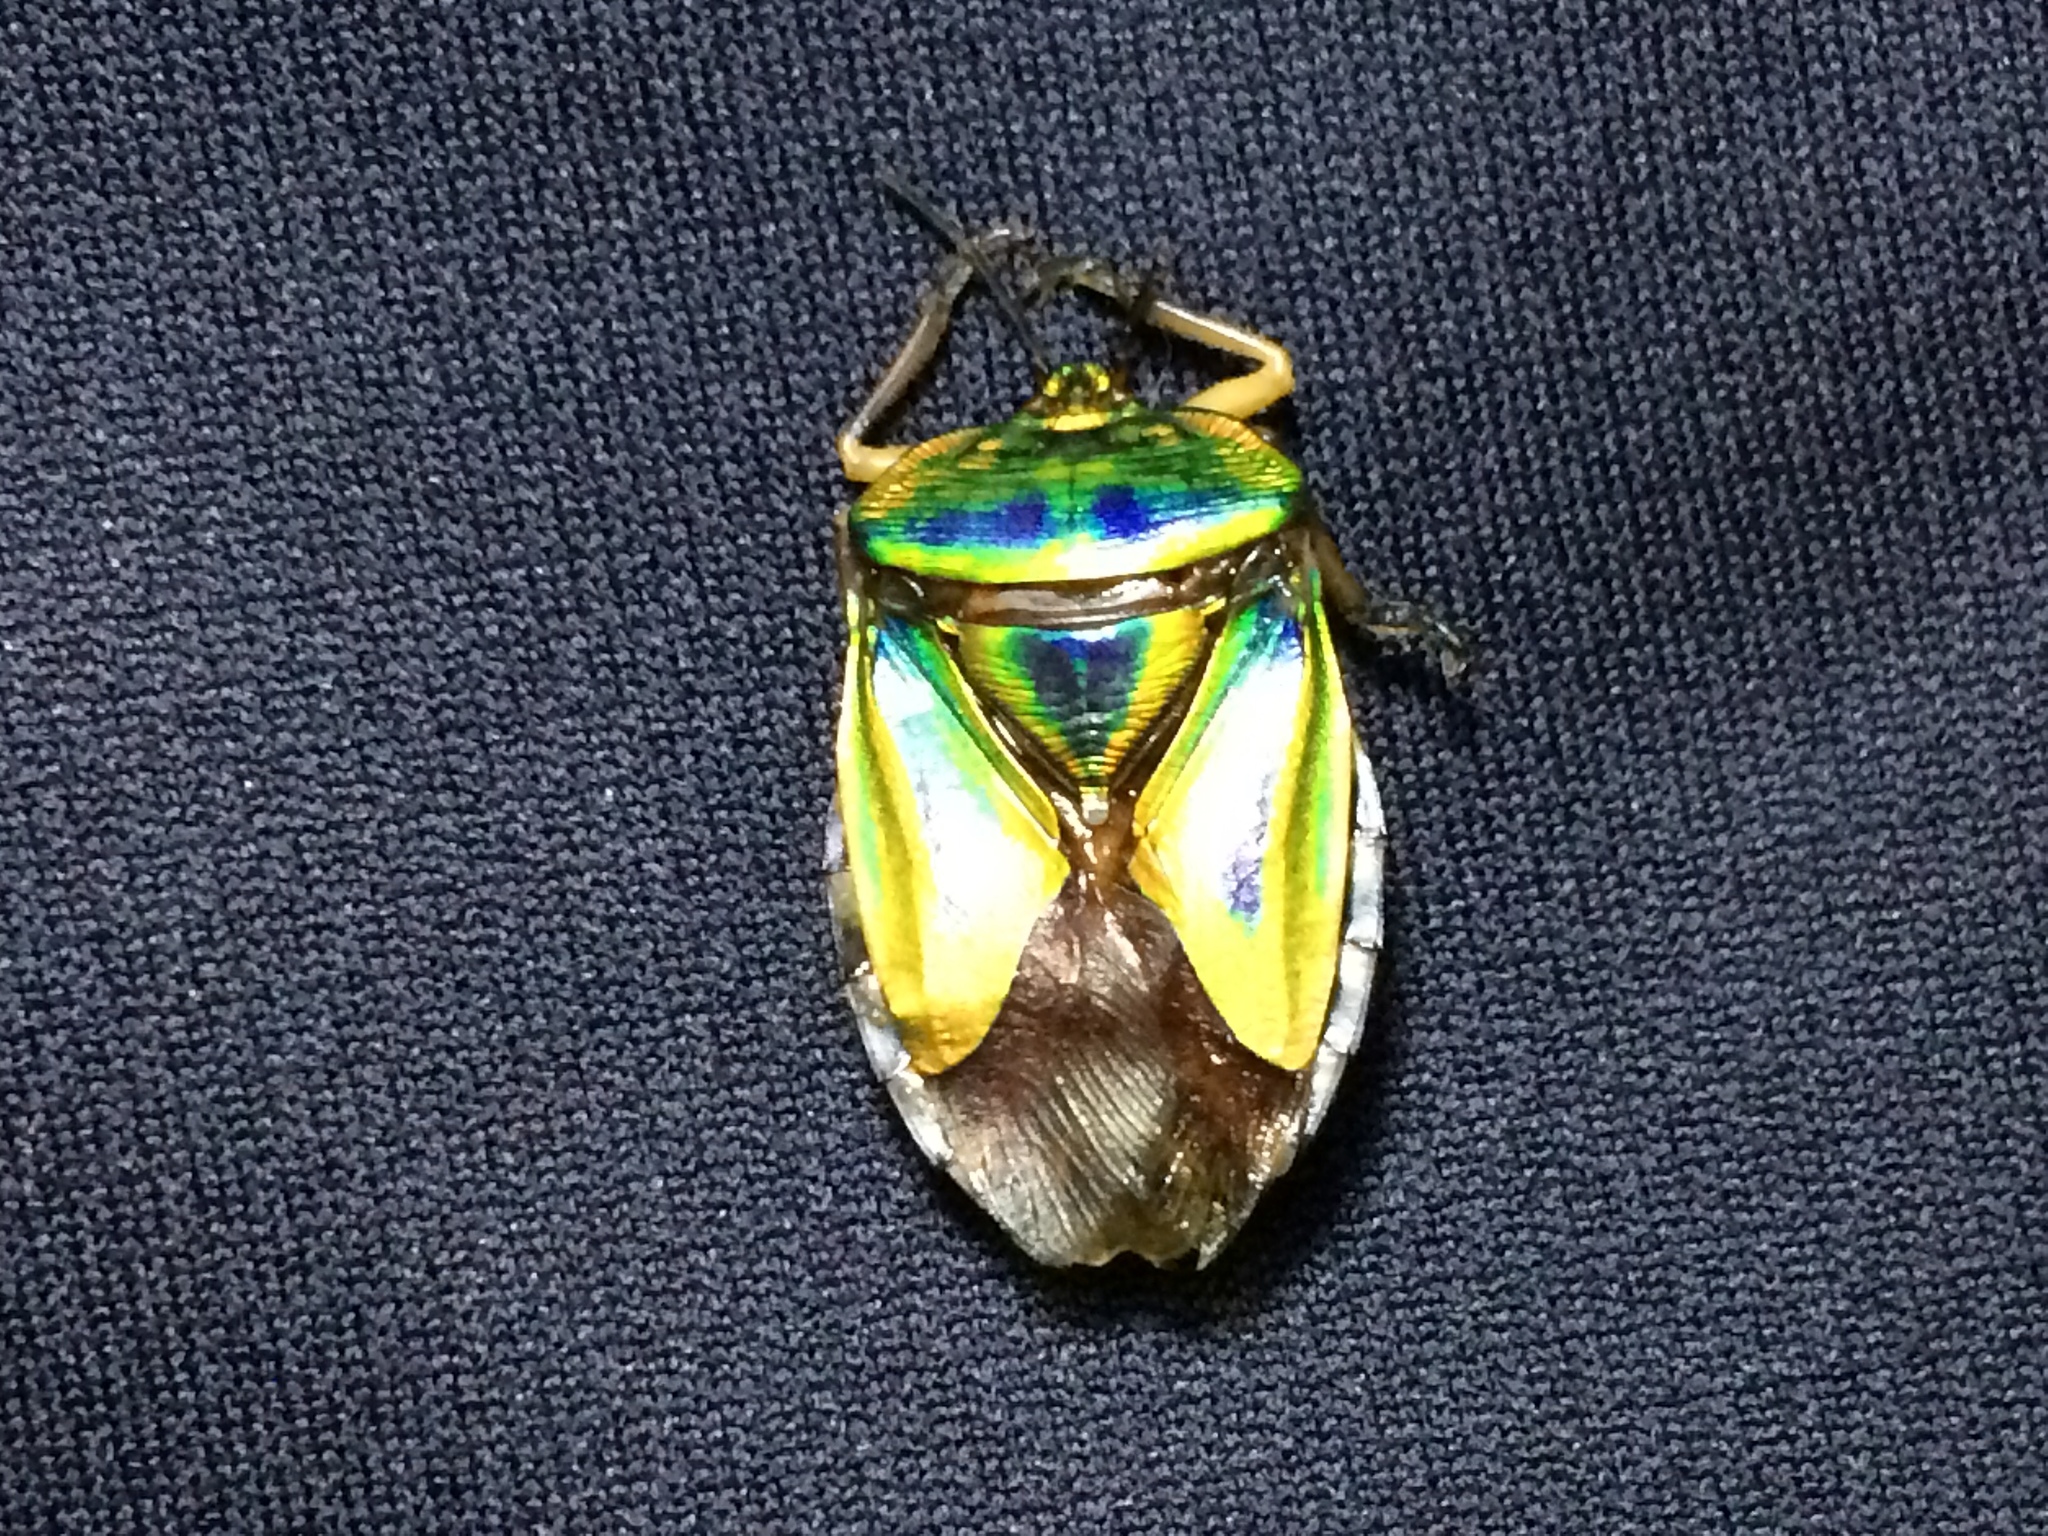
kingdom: Animalia
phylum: Arthropoda
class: Insecta
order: Hemiptera
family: Tessaratomidae
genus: Mattiphus
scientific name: Mattiphus reflexus
